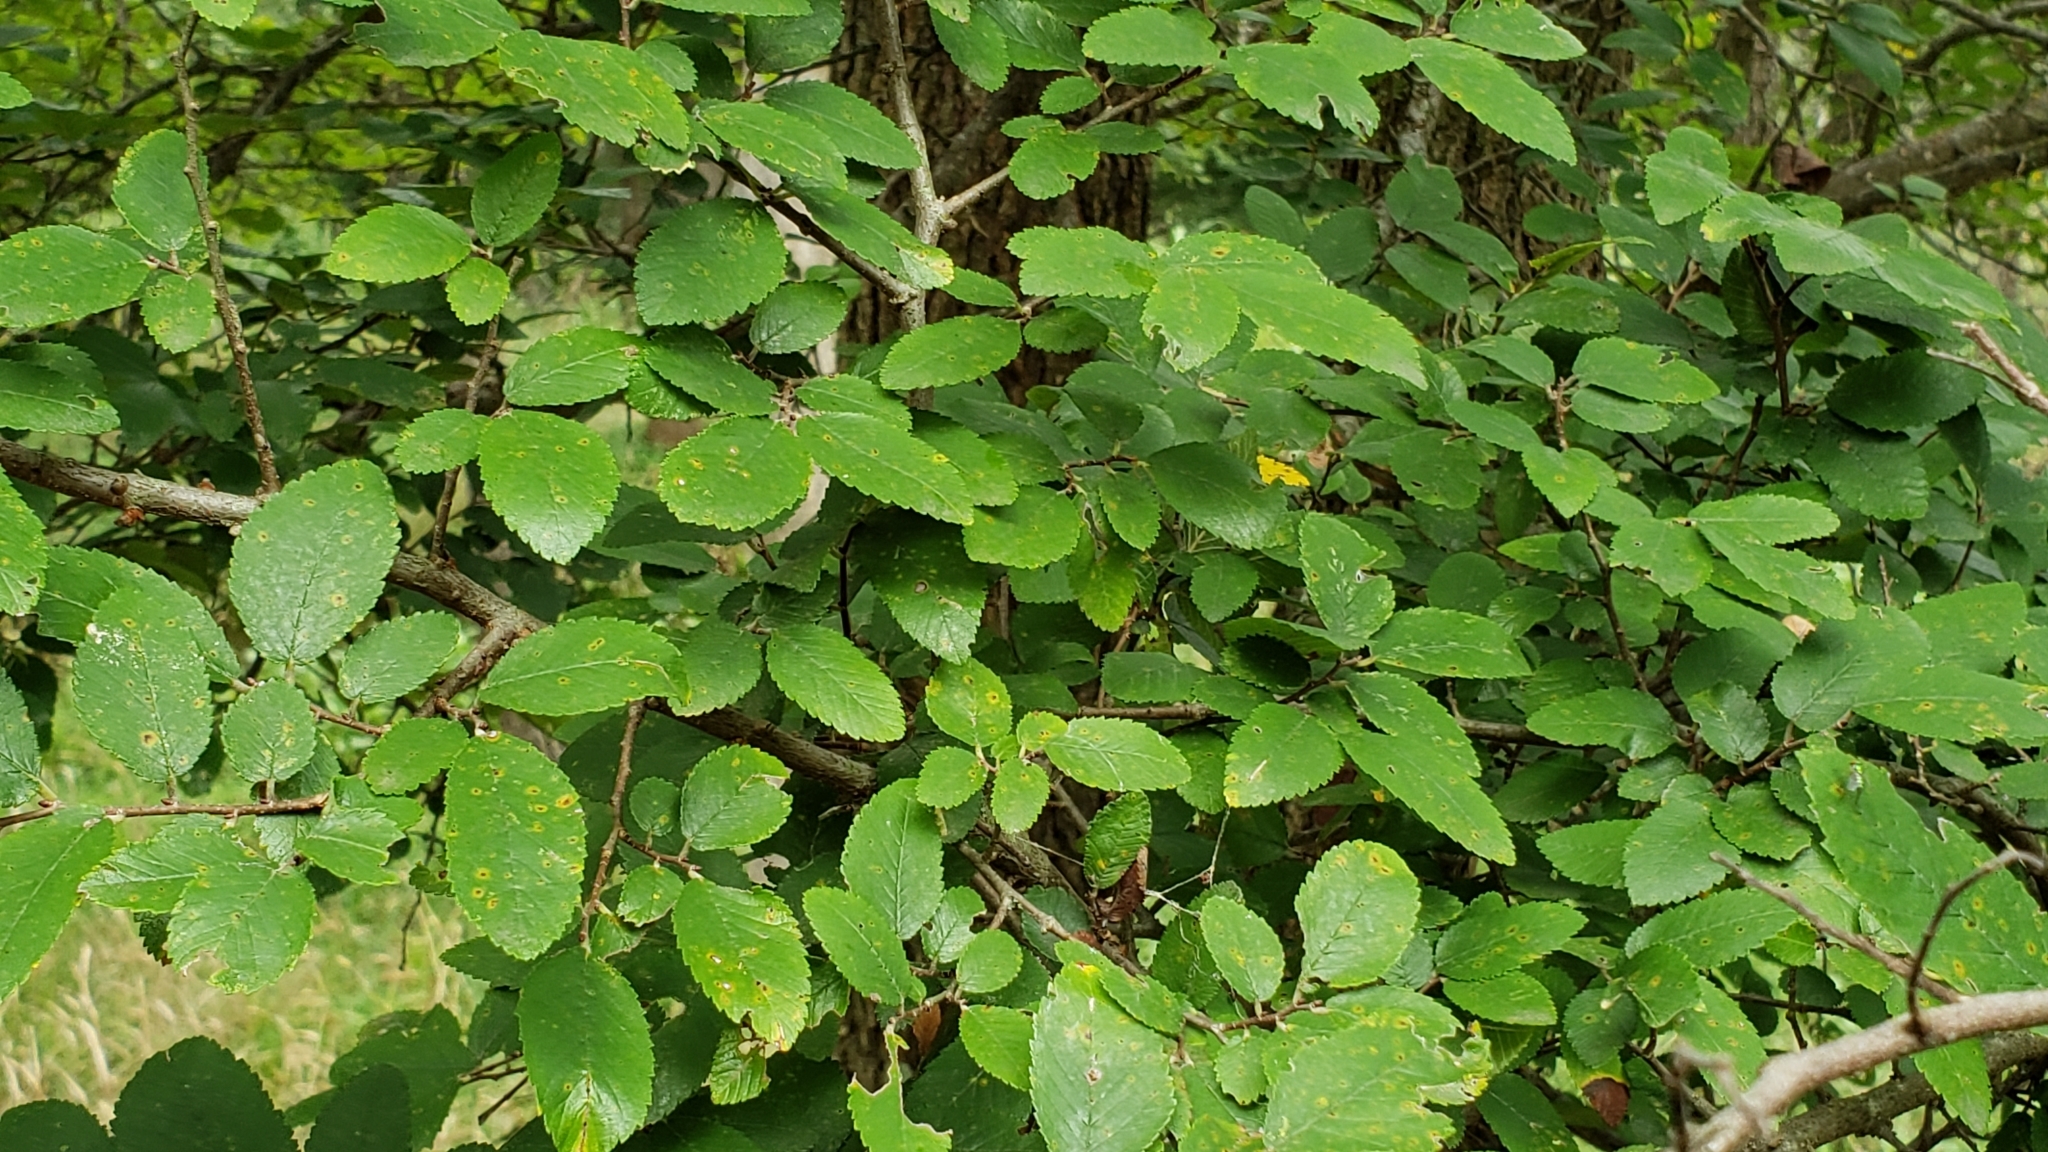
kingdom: Plantae
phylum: Tracheophyta
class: Magnoliopsida
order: Rosales
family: Ulmaceae
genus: Ulmus
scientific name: Ulmus crassifolia
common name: Basket elm
